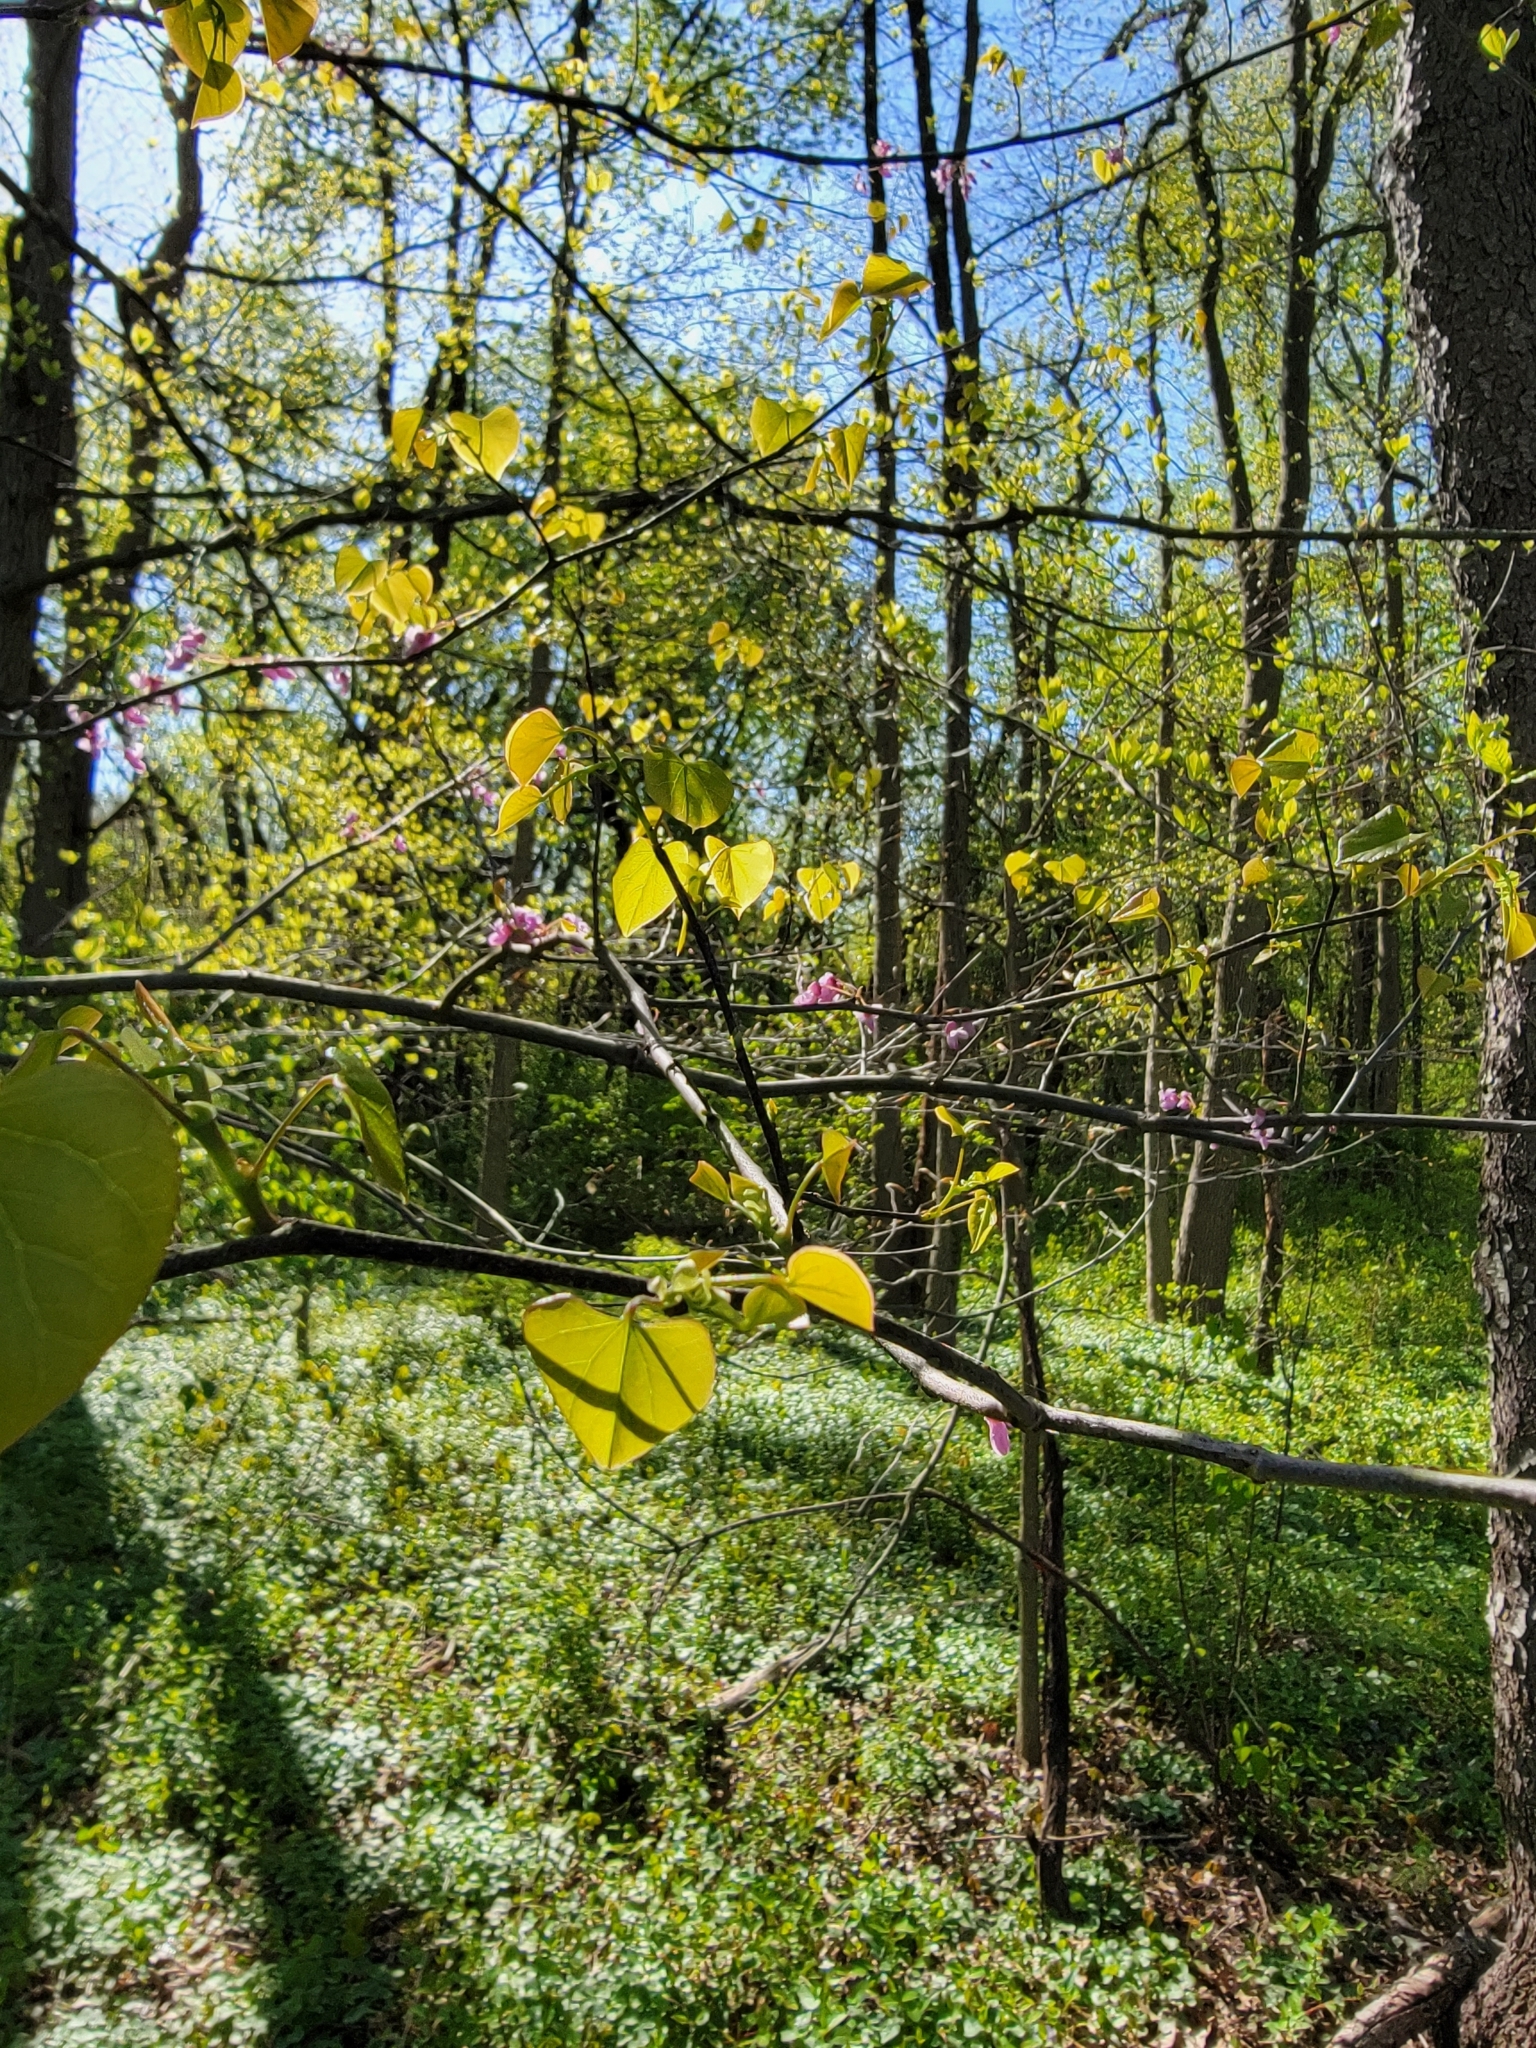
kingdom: Plantae
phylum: Tracheophyta
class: Magnoliopsida
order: Fabales
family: Fabaceae
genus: Cercis
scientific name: Cercis canadensis
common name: Eastern redbud
